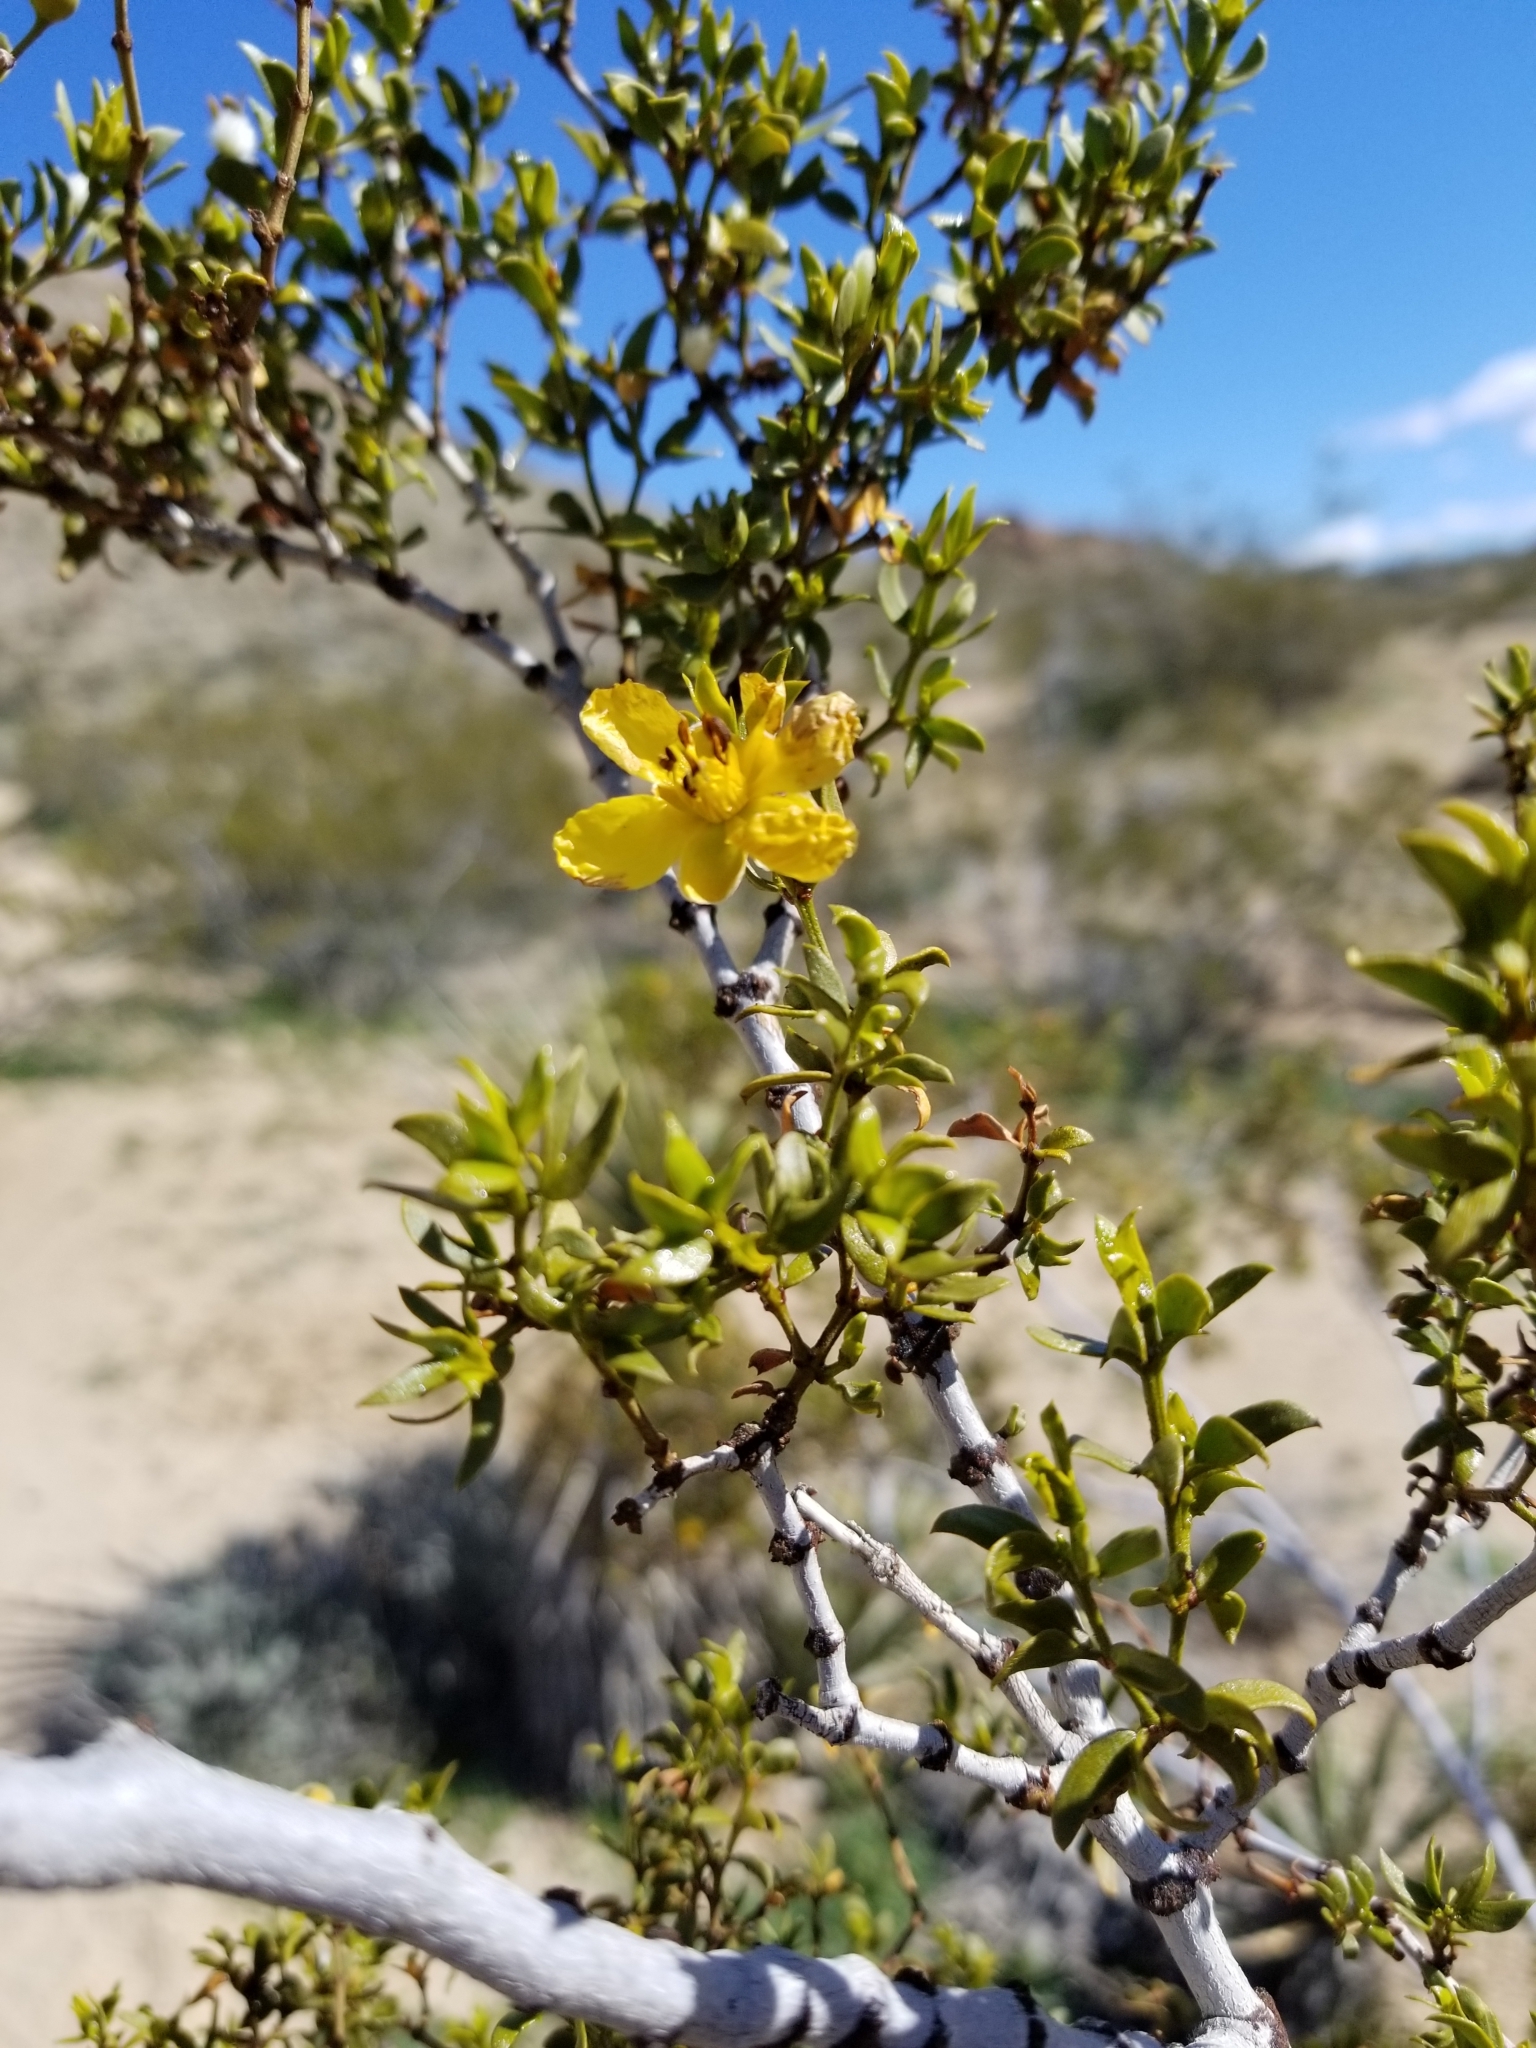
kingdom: Plantae
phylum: Tracheophyta
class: Magnoliopsida
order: Zygophyllales
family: Zygophyllaceae
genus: Larrea
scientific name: Larrea tridentata
